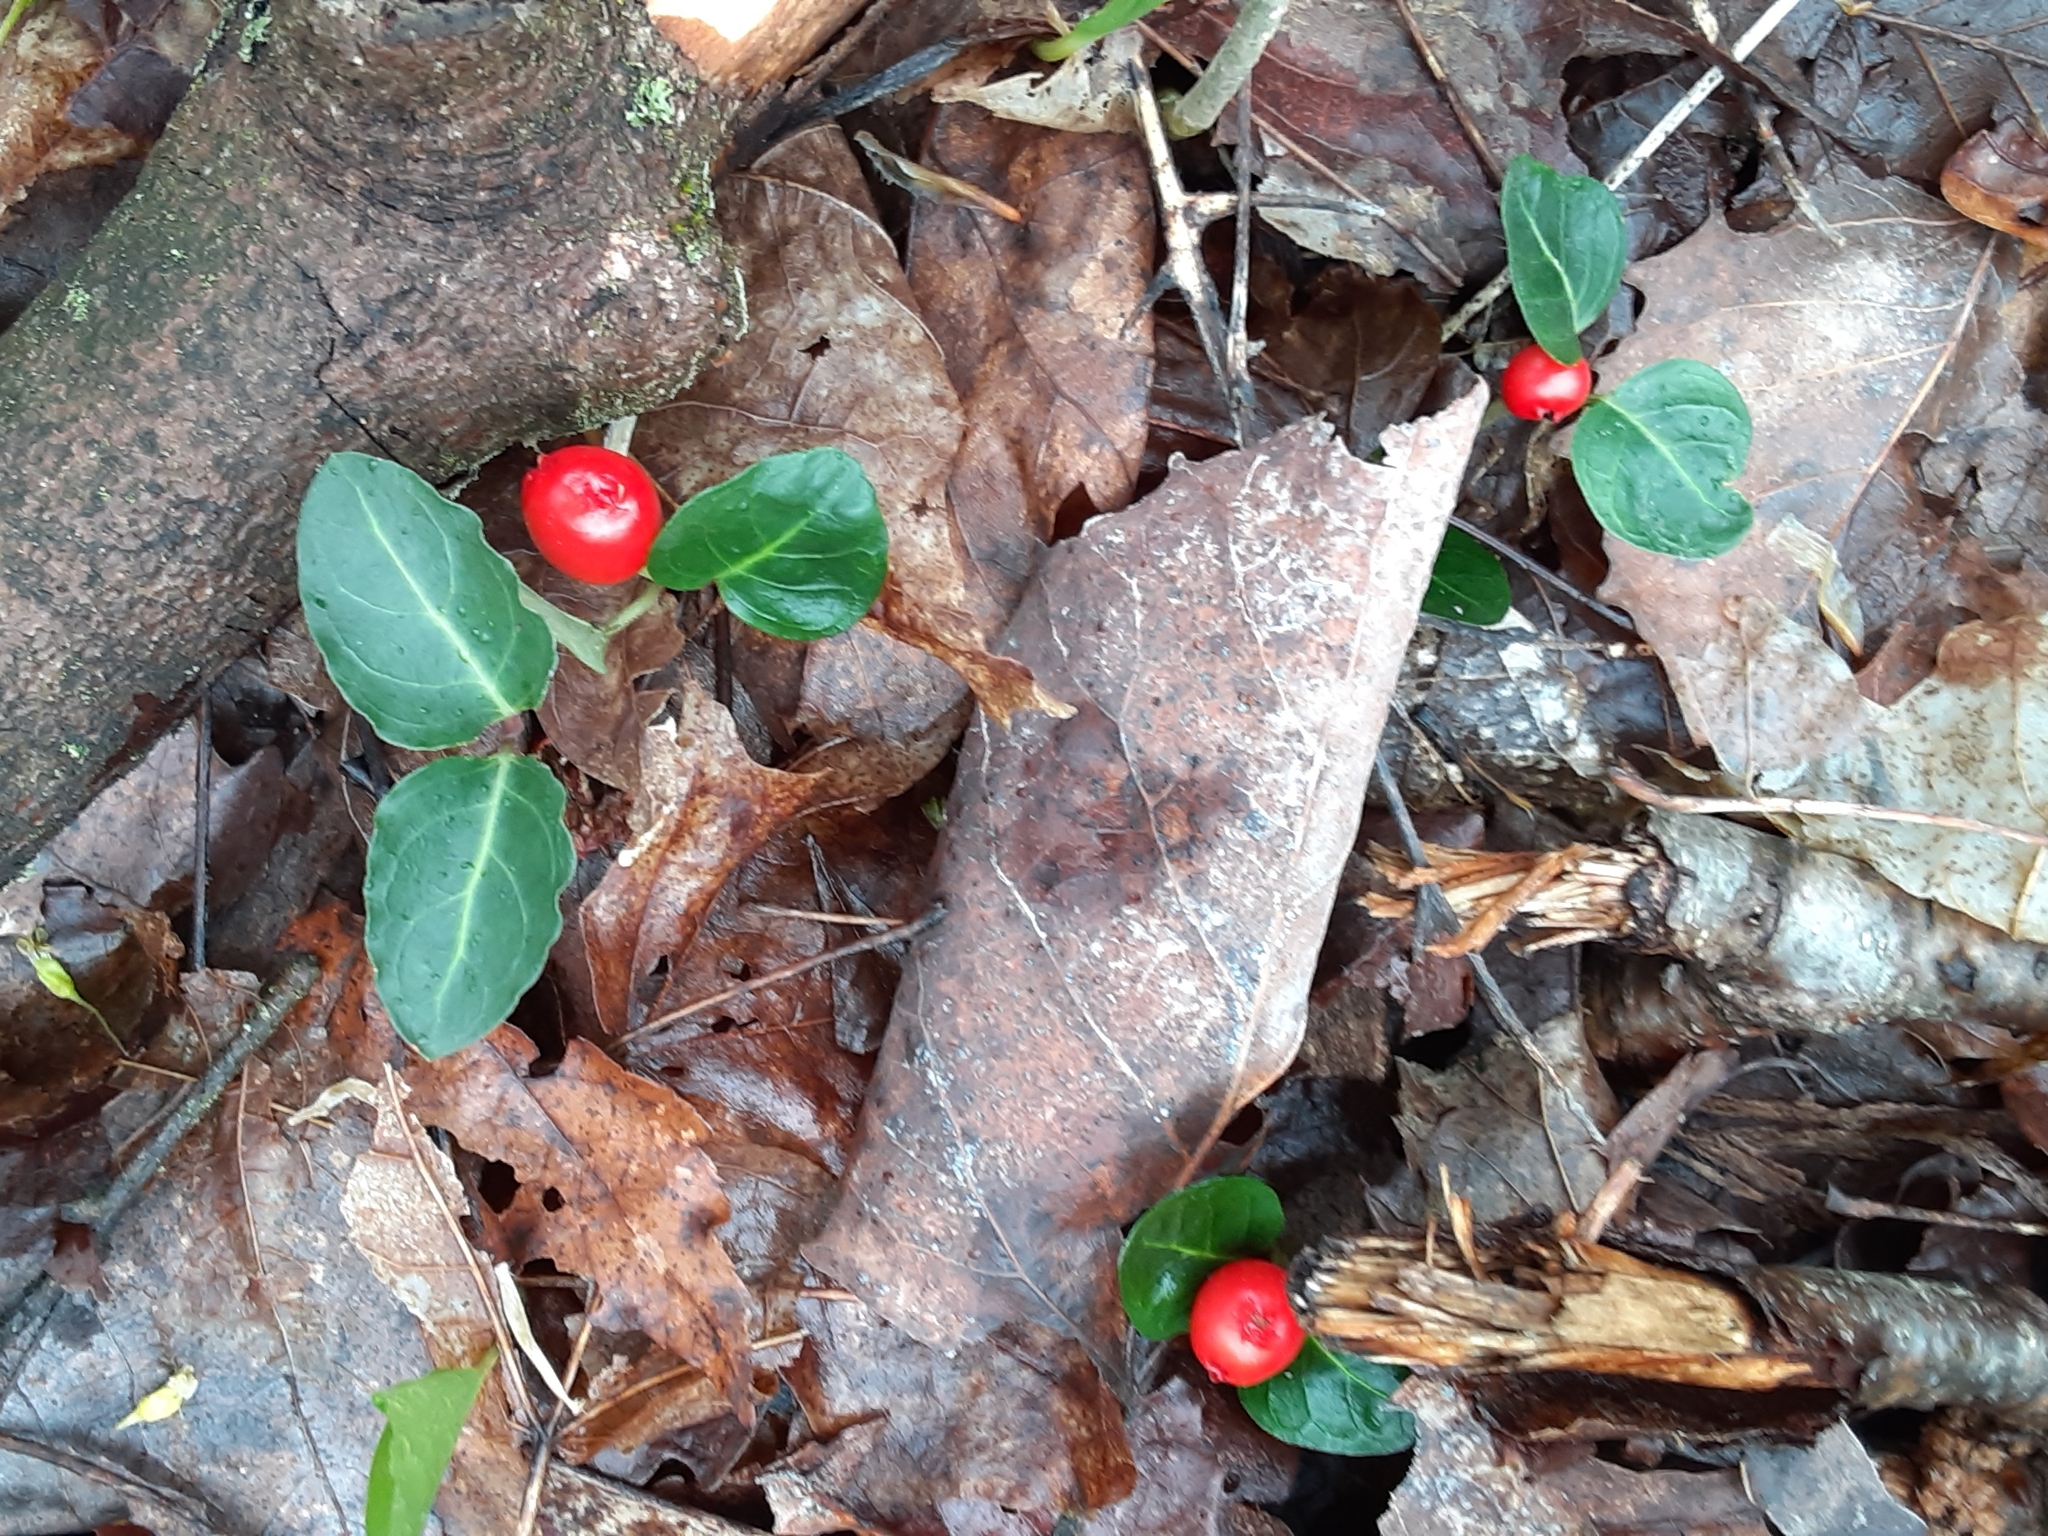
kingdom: Plantae
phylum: Tracheophyta
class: Magnoliopsida
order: Gentianales
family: Rubiaceae
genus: Mitchella
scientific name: Mitchella repens
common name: Partridge-berry
